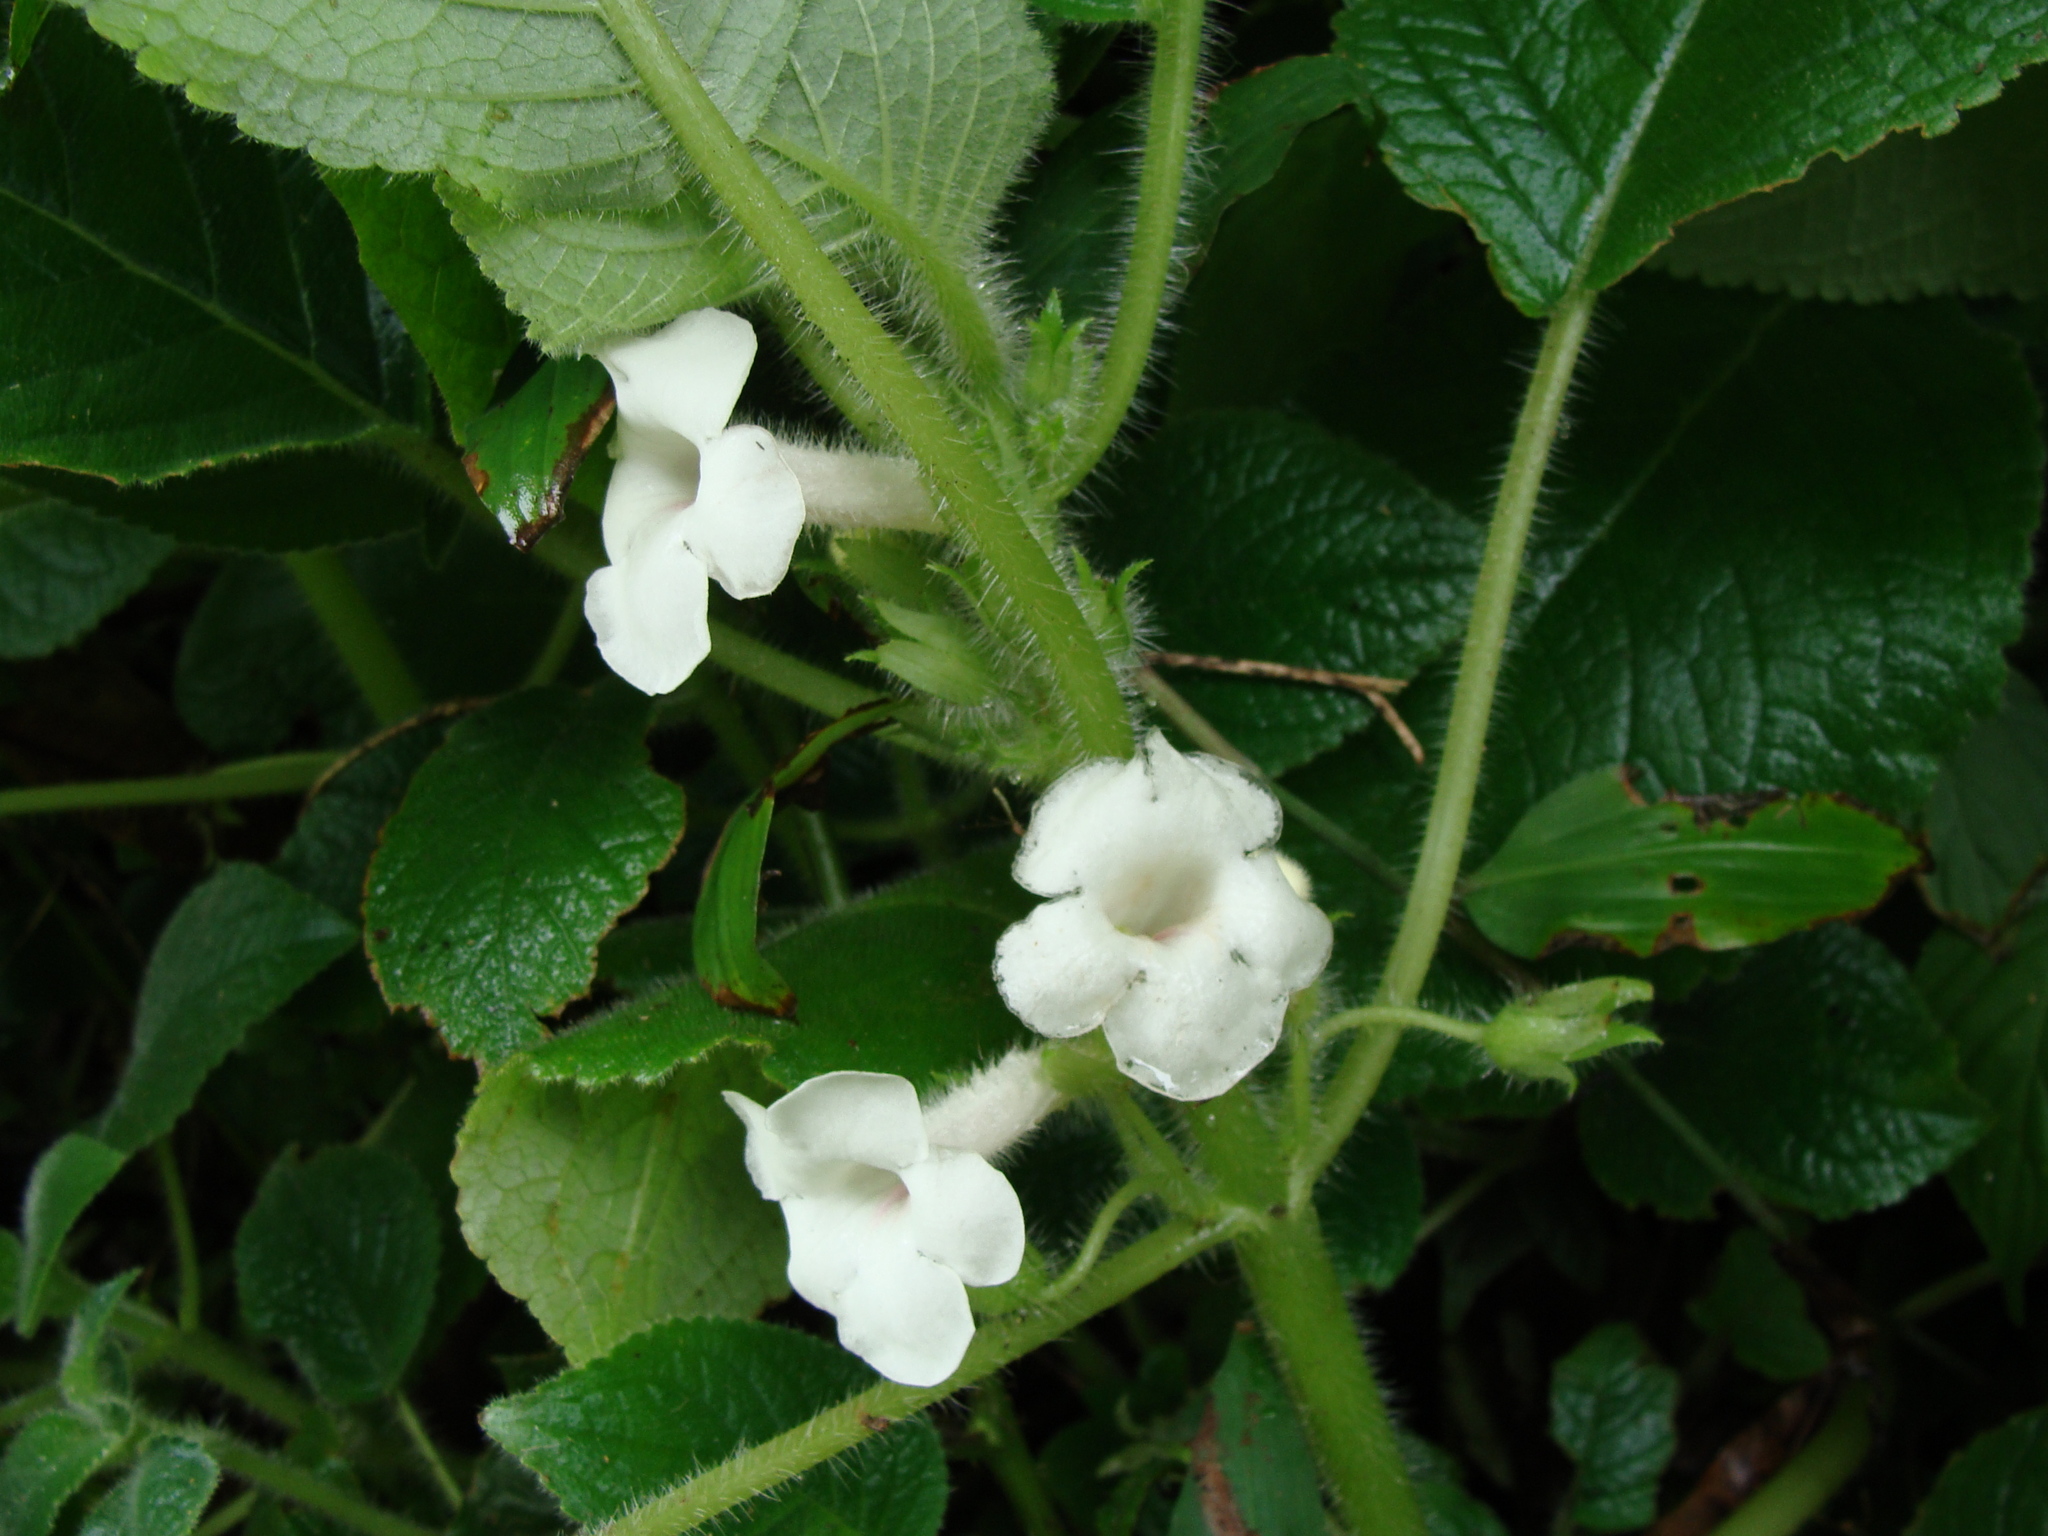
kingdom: Plantae
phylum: Tracheophyta
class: Magnoliopsida
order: Lamiales
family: Gesneriaceae
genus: Chrysothemis
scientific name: Chrysothemis panamensis
